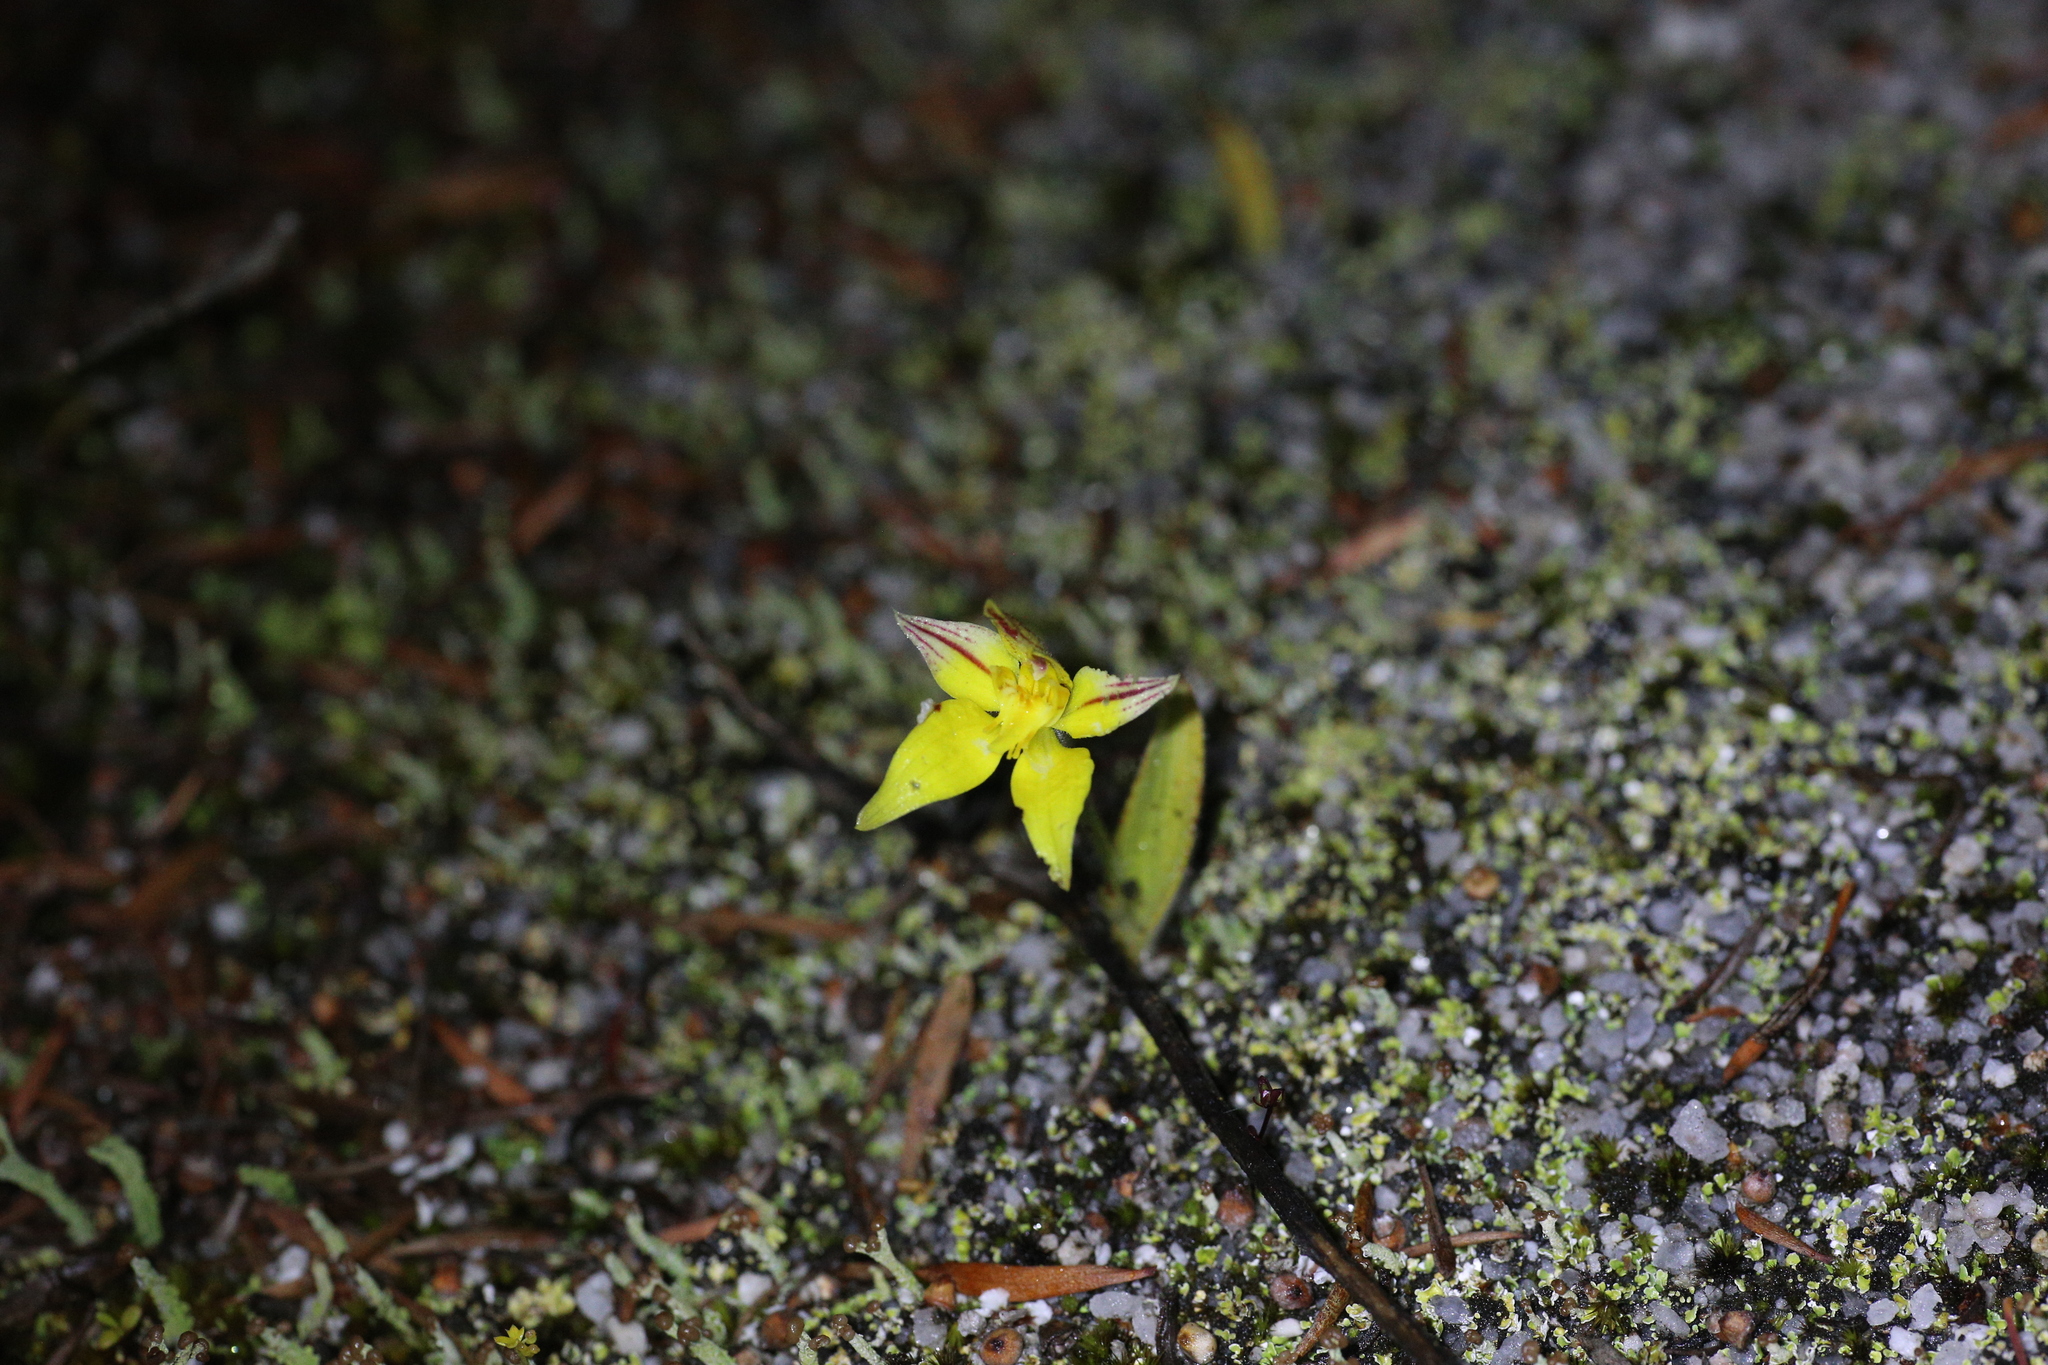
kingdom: Plantae
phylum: Tracheophyta
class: Liliopsida
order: Asparagales
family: Orchidaceae
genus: Caladenia
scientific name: Caladenia flava
